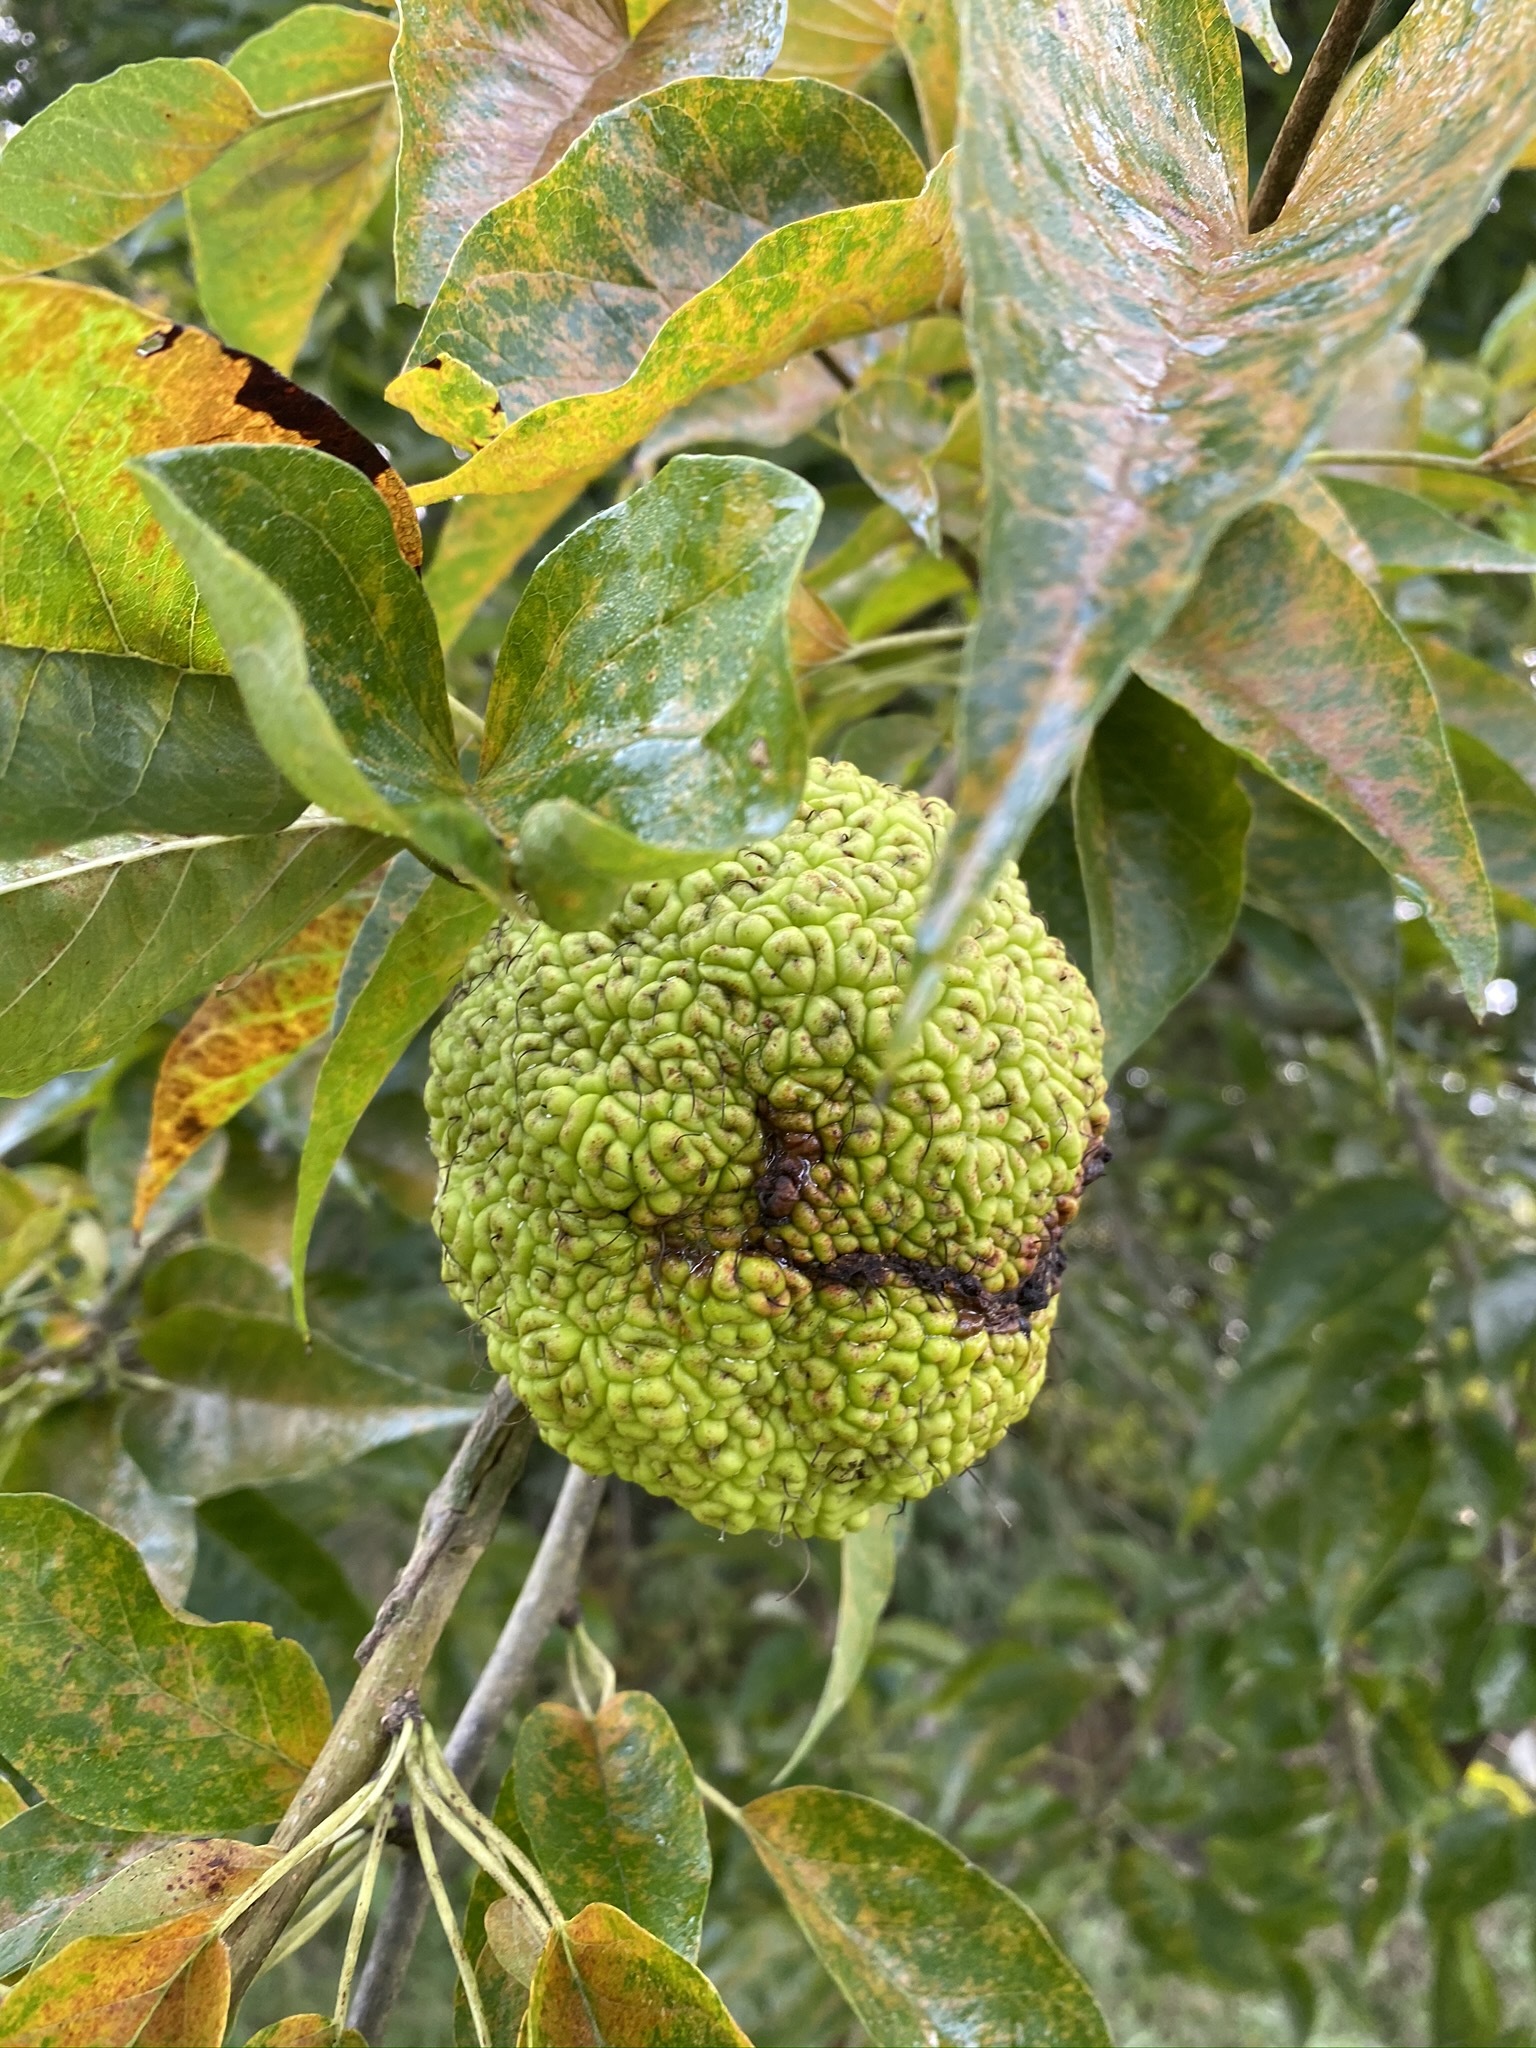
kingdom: Plantae
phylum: Tracheophyta
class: Magnoliopsida
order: Rosales
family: Moraceae
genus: Maclura
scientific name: Maclura pomifera
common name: Osage-orange
